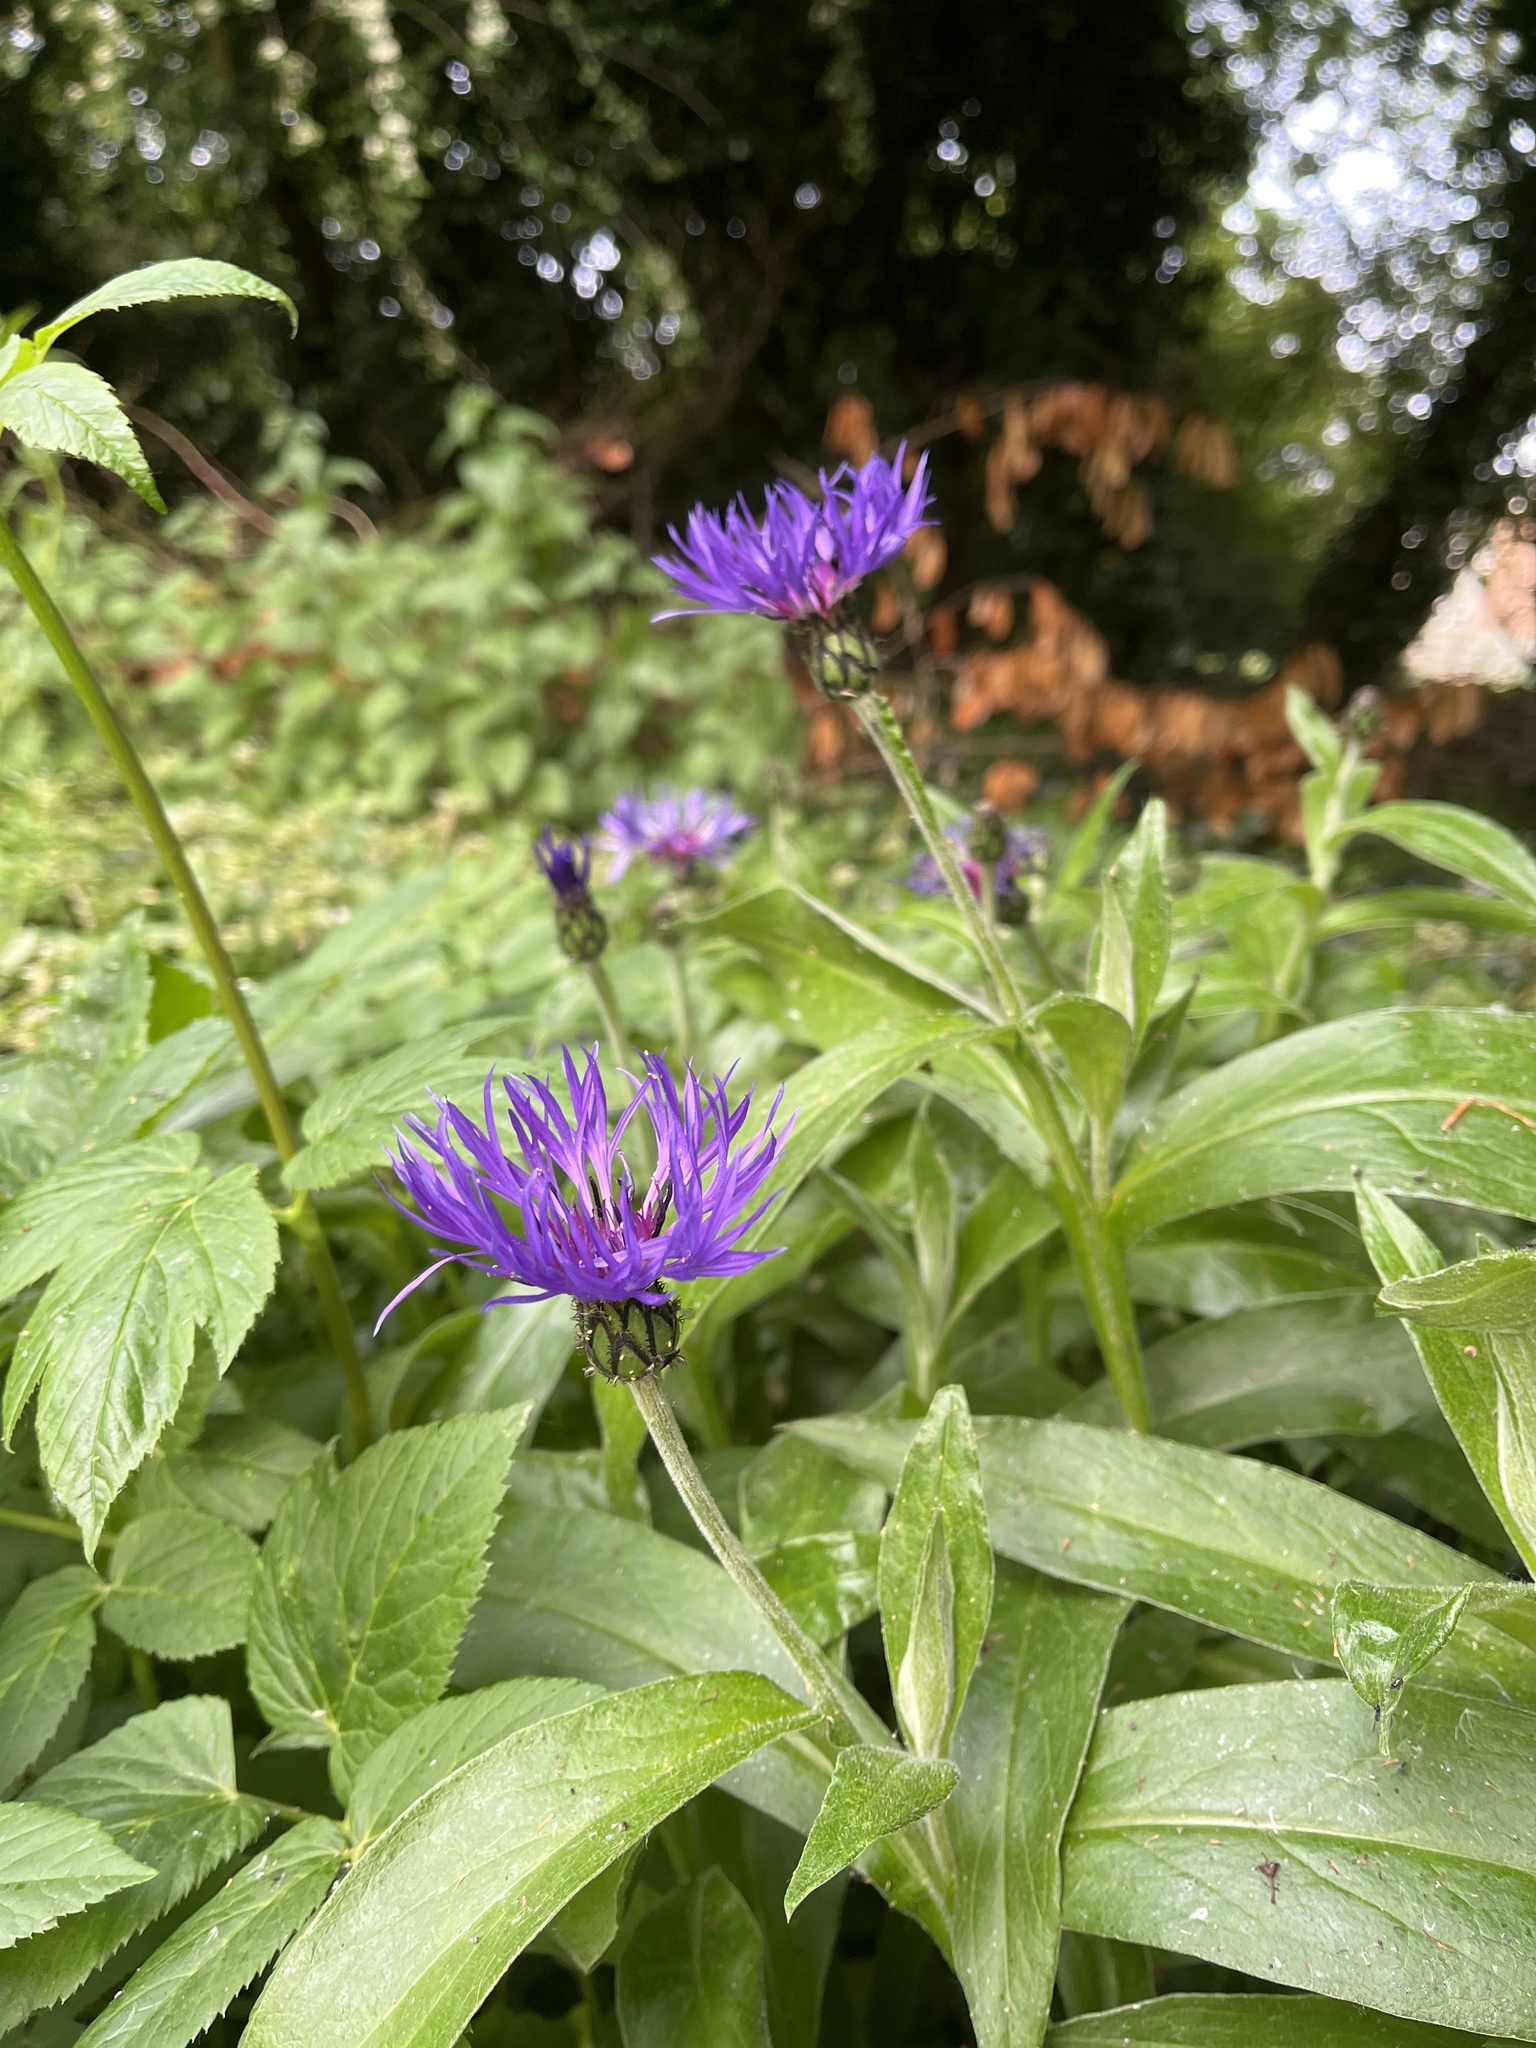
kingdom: Plantae
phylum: Tracheophyta
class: Magnoliopsida
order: Asterales
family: Asteraceae
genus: Centaurea
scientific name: Centaurea montana
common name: Perennial cornflower
